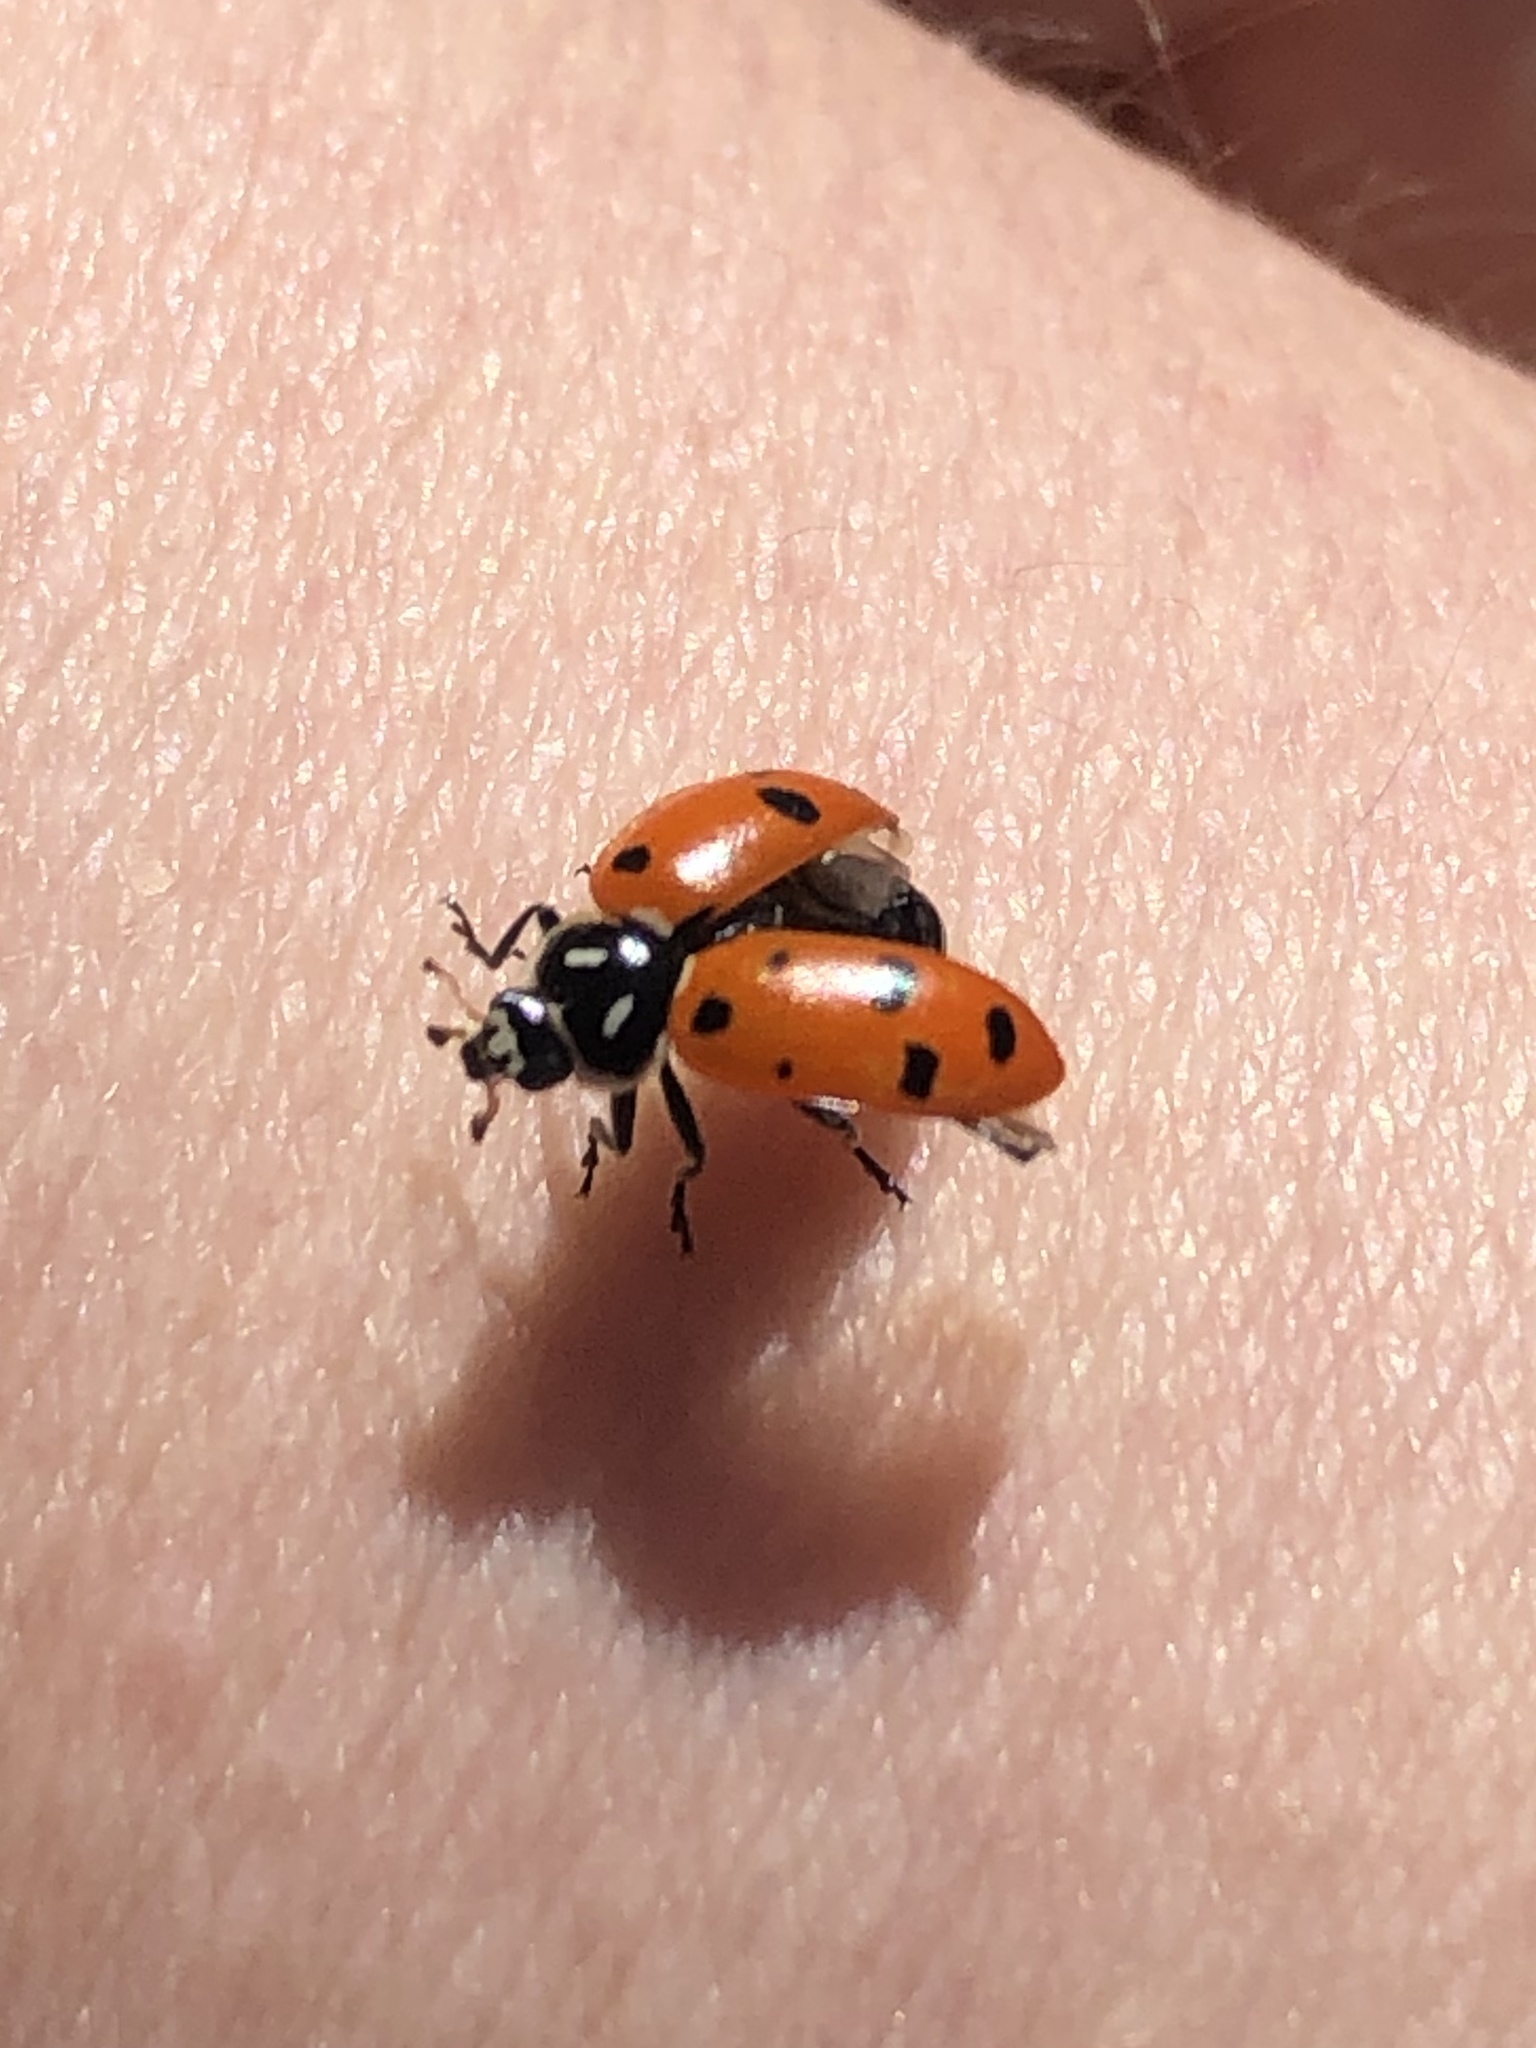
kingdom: Animalia
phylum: Arthropoda
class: Insecta
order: Coleoptera
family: Coccinellidae
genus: Hippodamia
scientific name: Hippodamia convergens
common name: Convergent lady beetle
